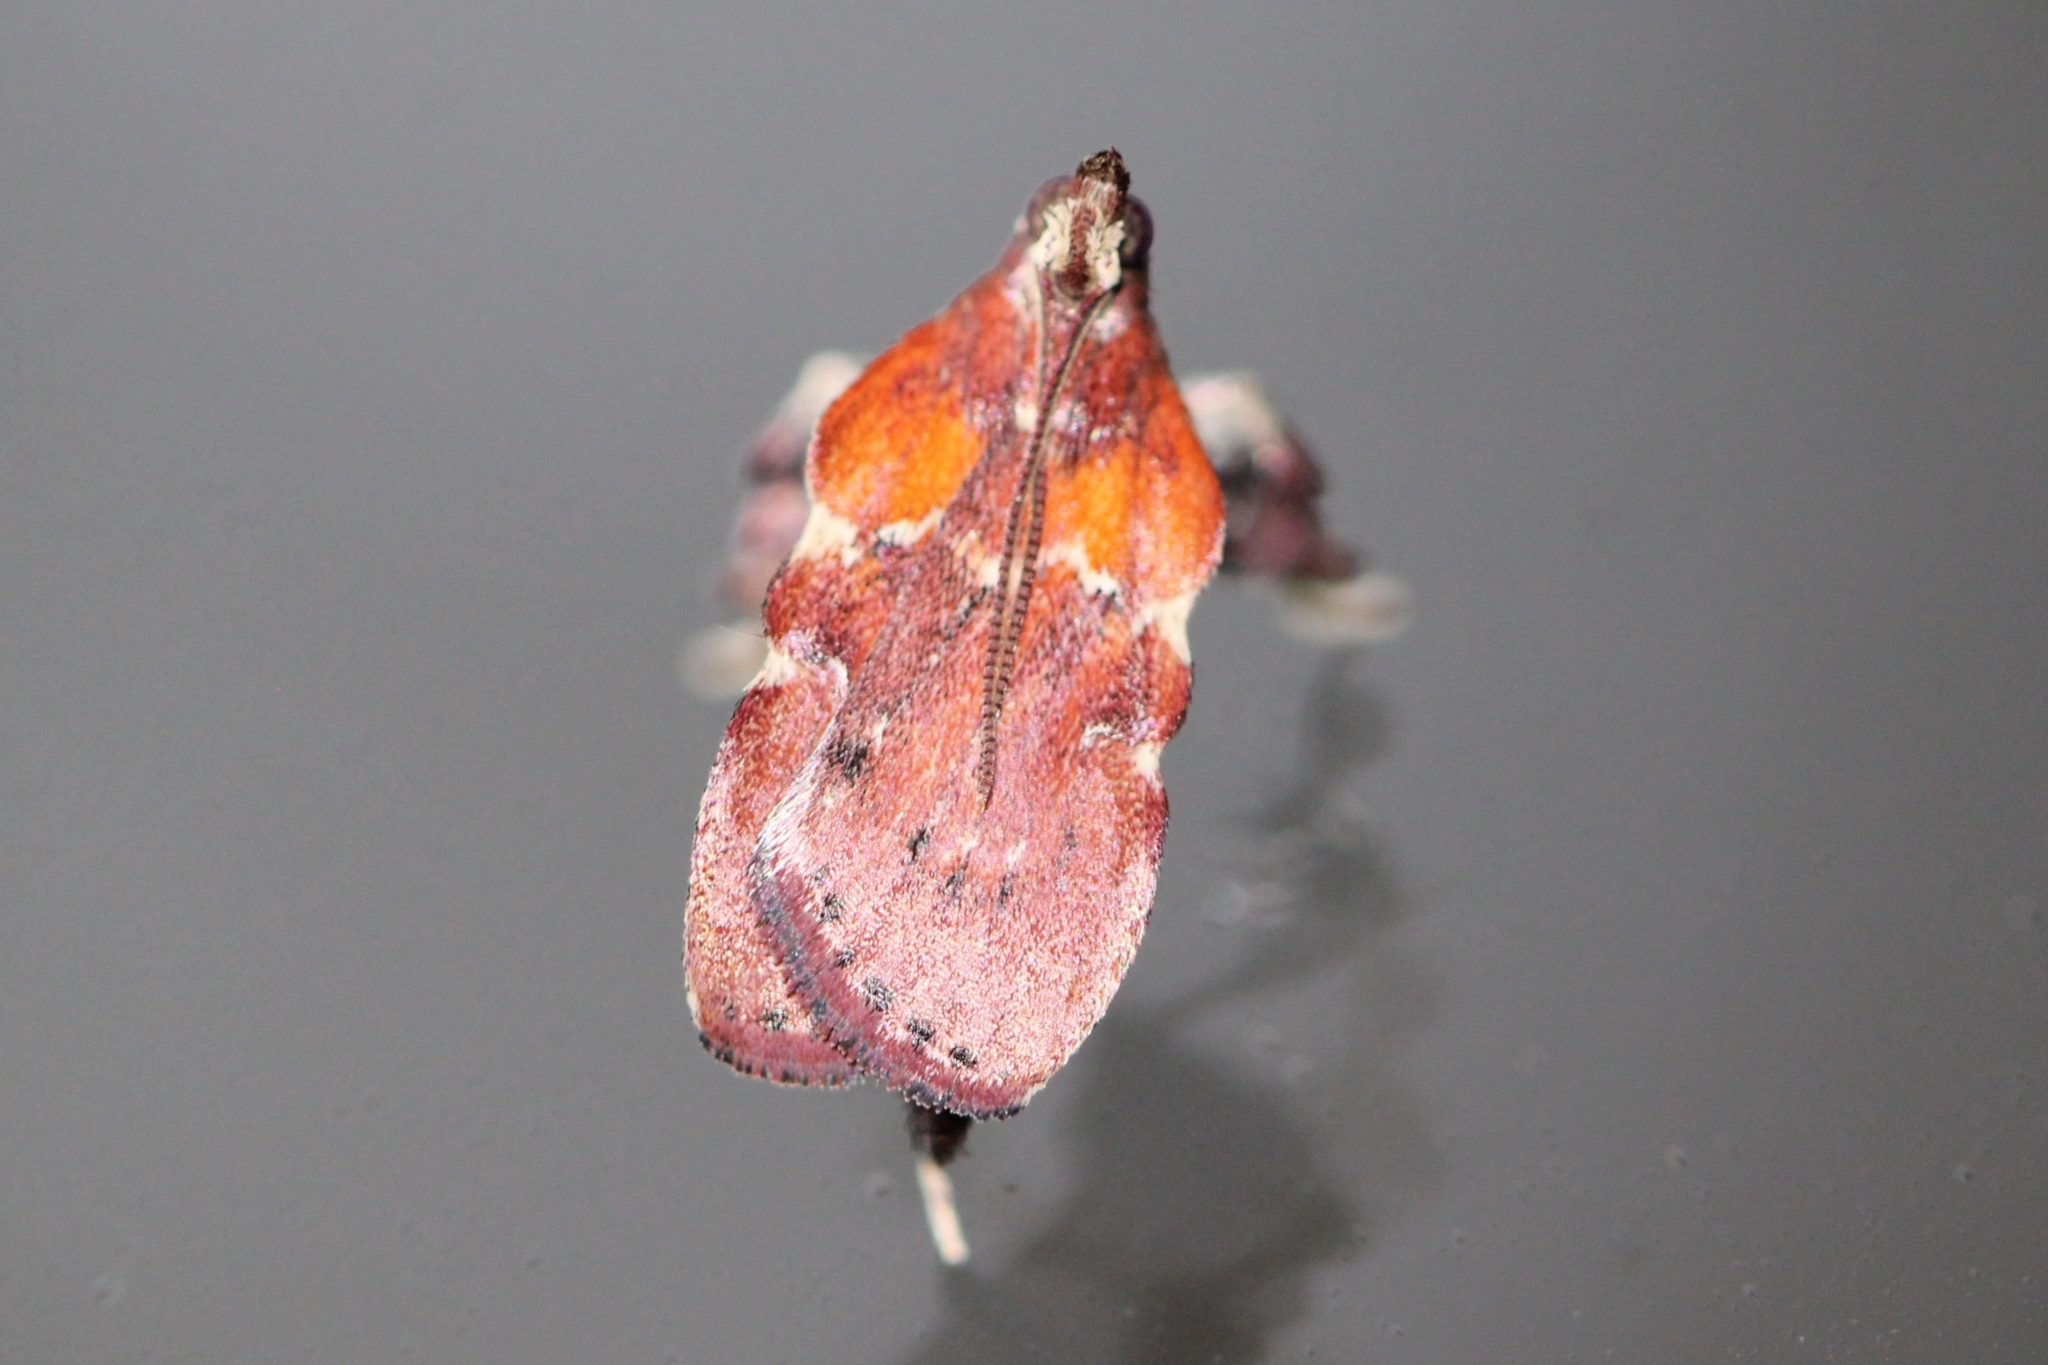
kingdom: Animalia
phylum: Arthropoda
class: Insecta
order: Lepidoptera
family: Pyralidae
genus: Galasa
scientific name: Galasa nigrinodis
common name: Boxwood leaftier moth
